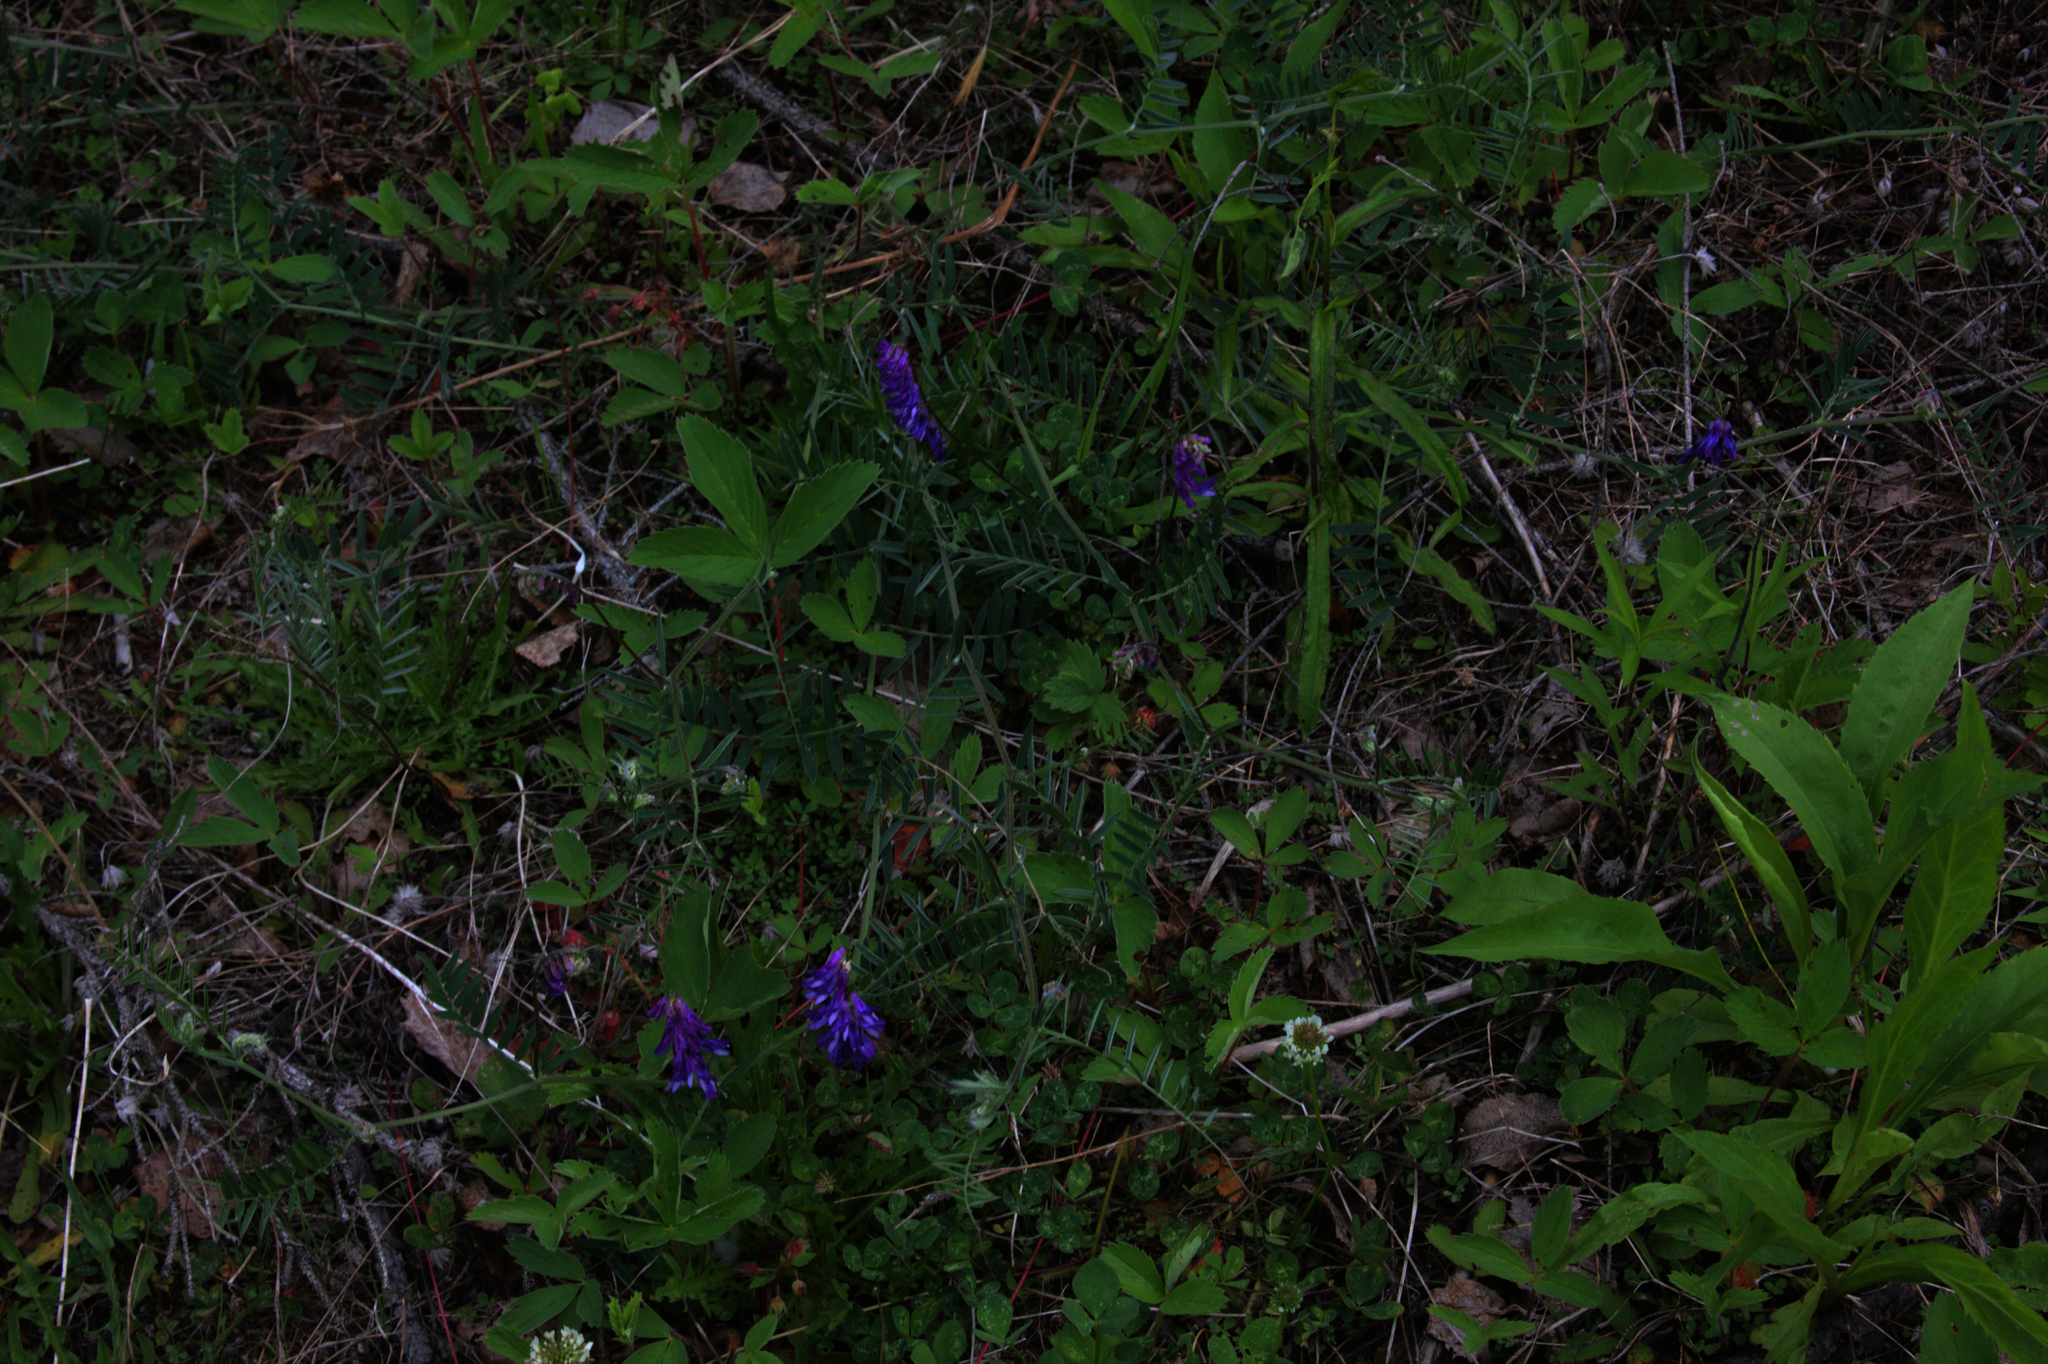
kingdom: Plantae
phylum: Tracheophyta
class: Magnoliopsida
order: Fabales
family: Fabaceae
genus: Vicia
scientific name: Vicia cracca
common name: Bird vetch
